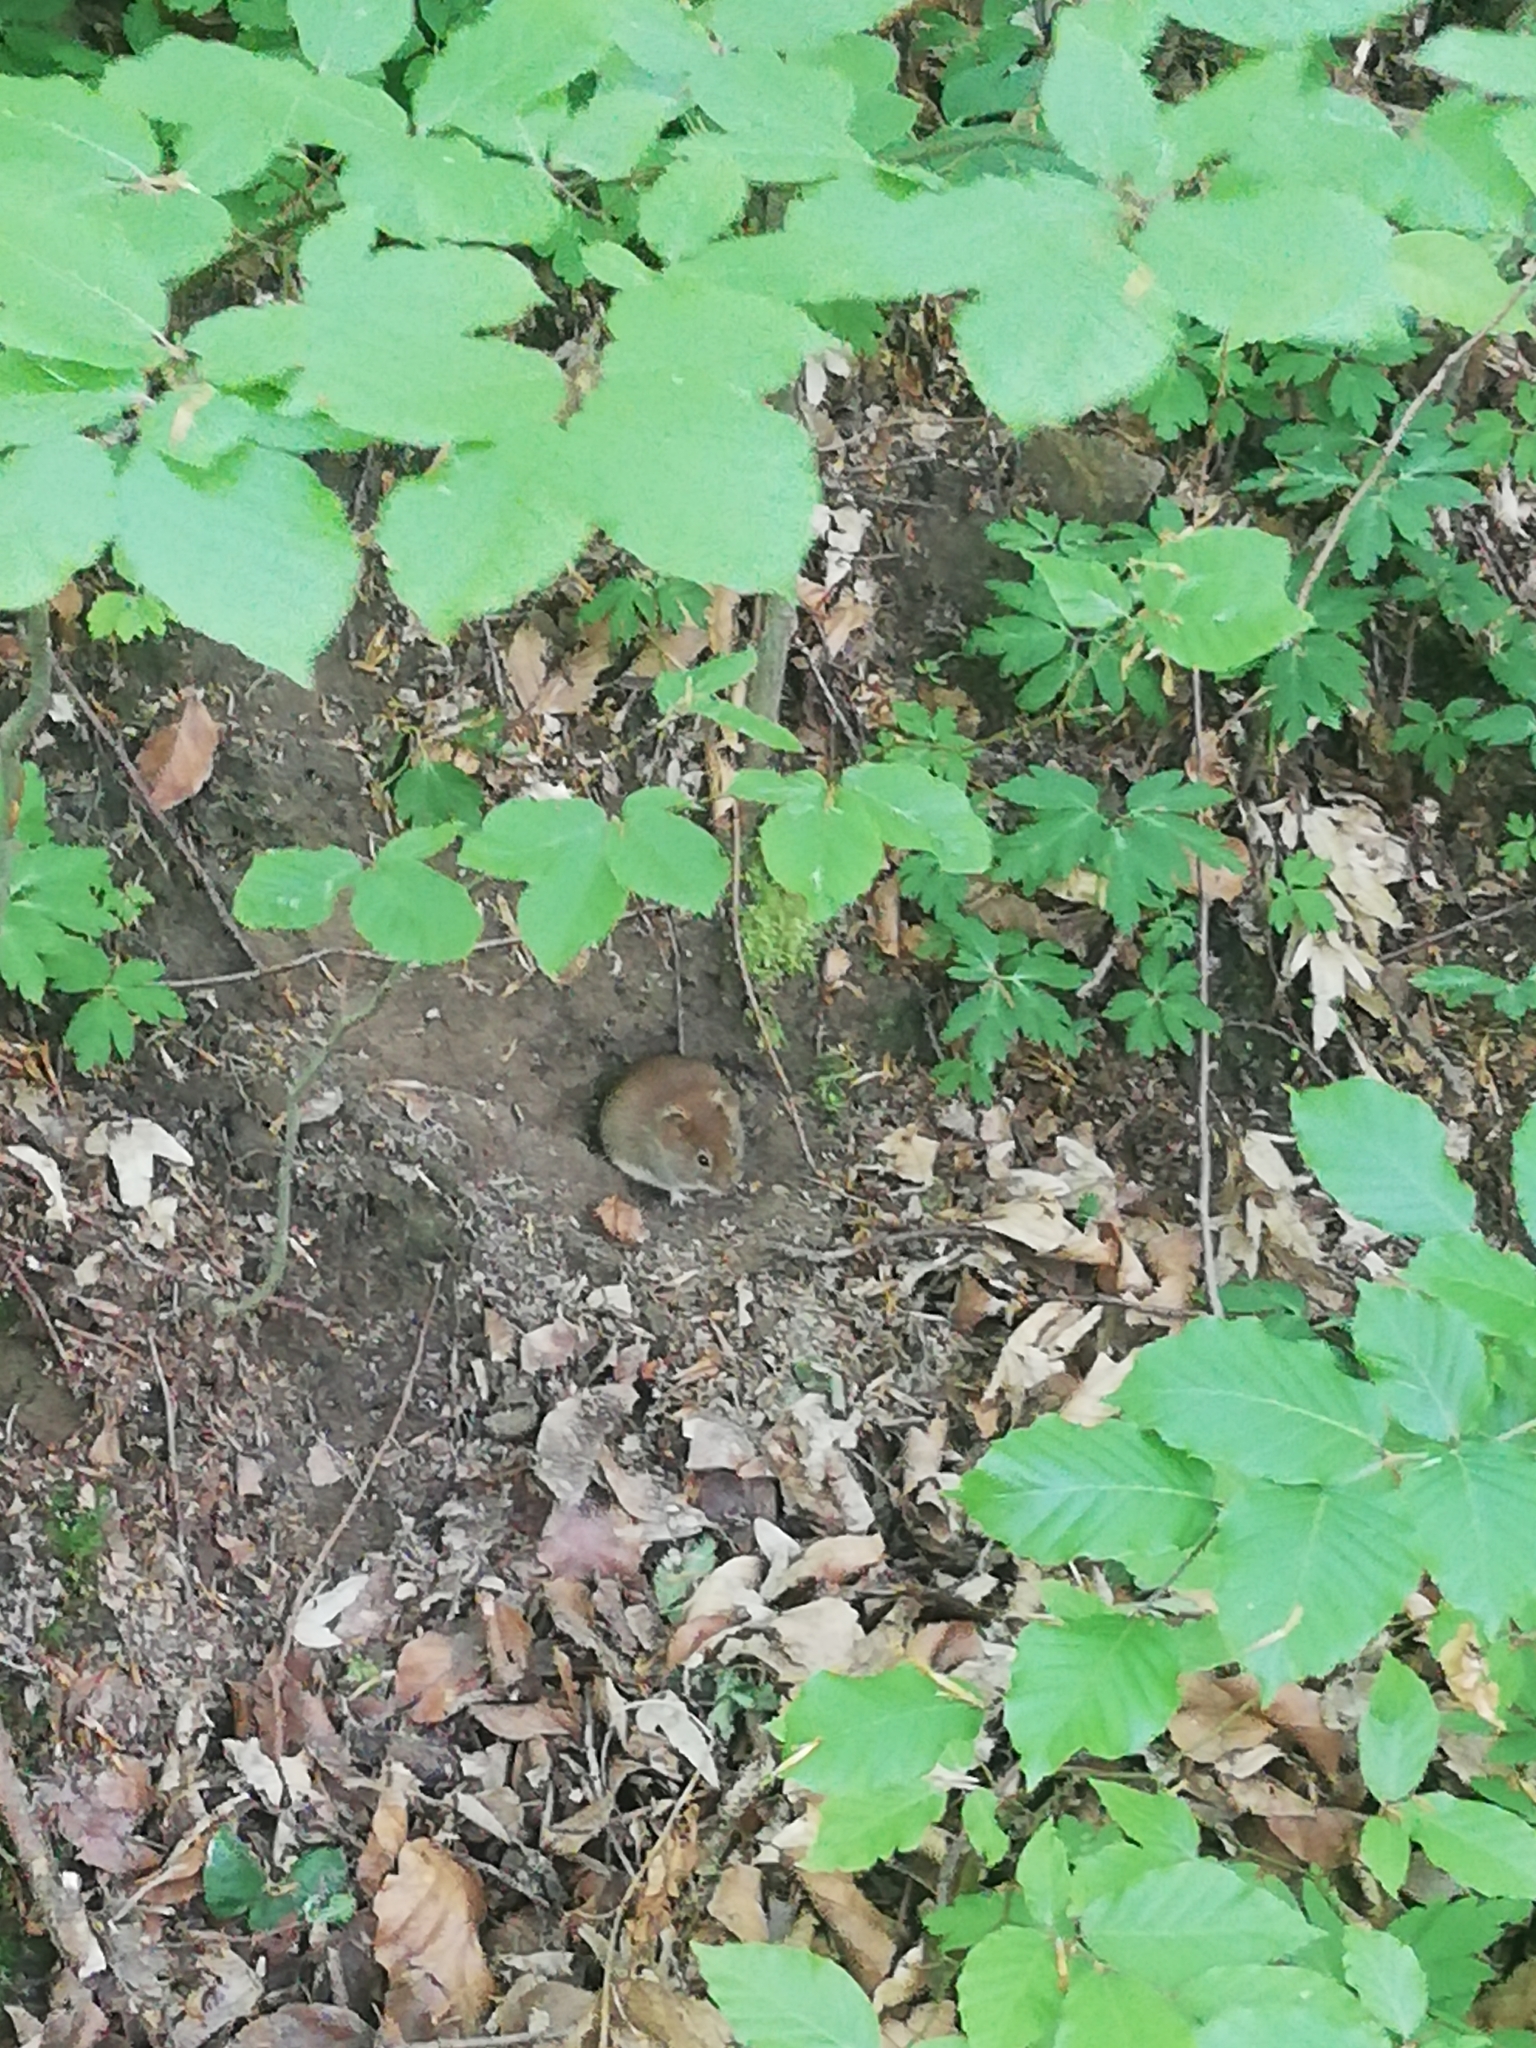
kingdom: Animalia
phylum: Chordata
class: Mammalia
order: Rodentia
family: Cricetidae
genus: Myodes
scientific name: Myodes glareolus
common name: Bank vole
